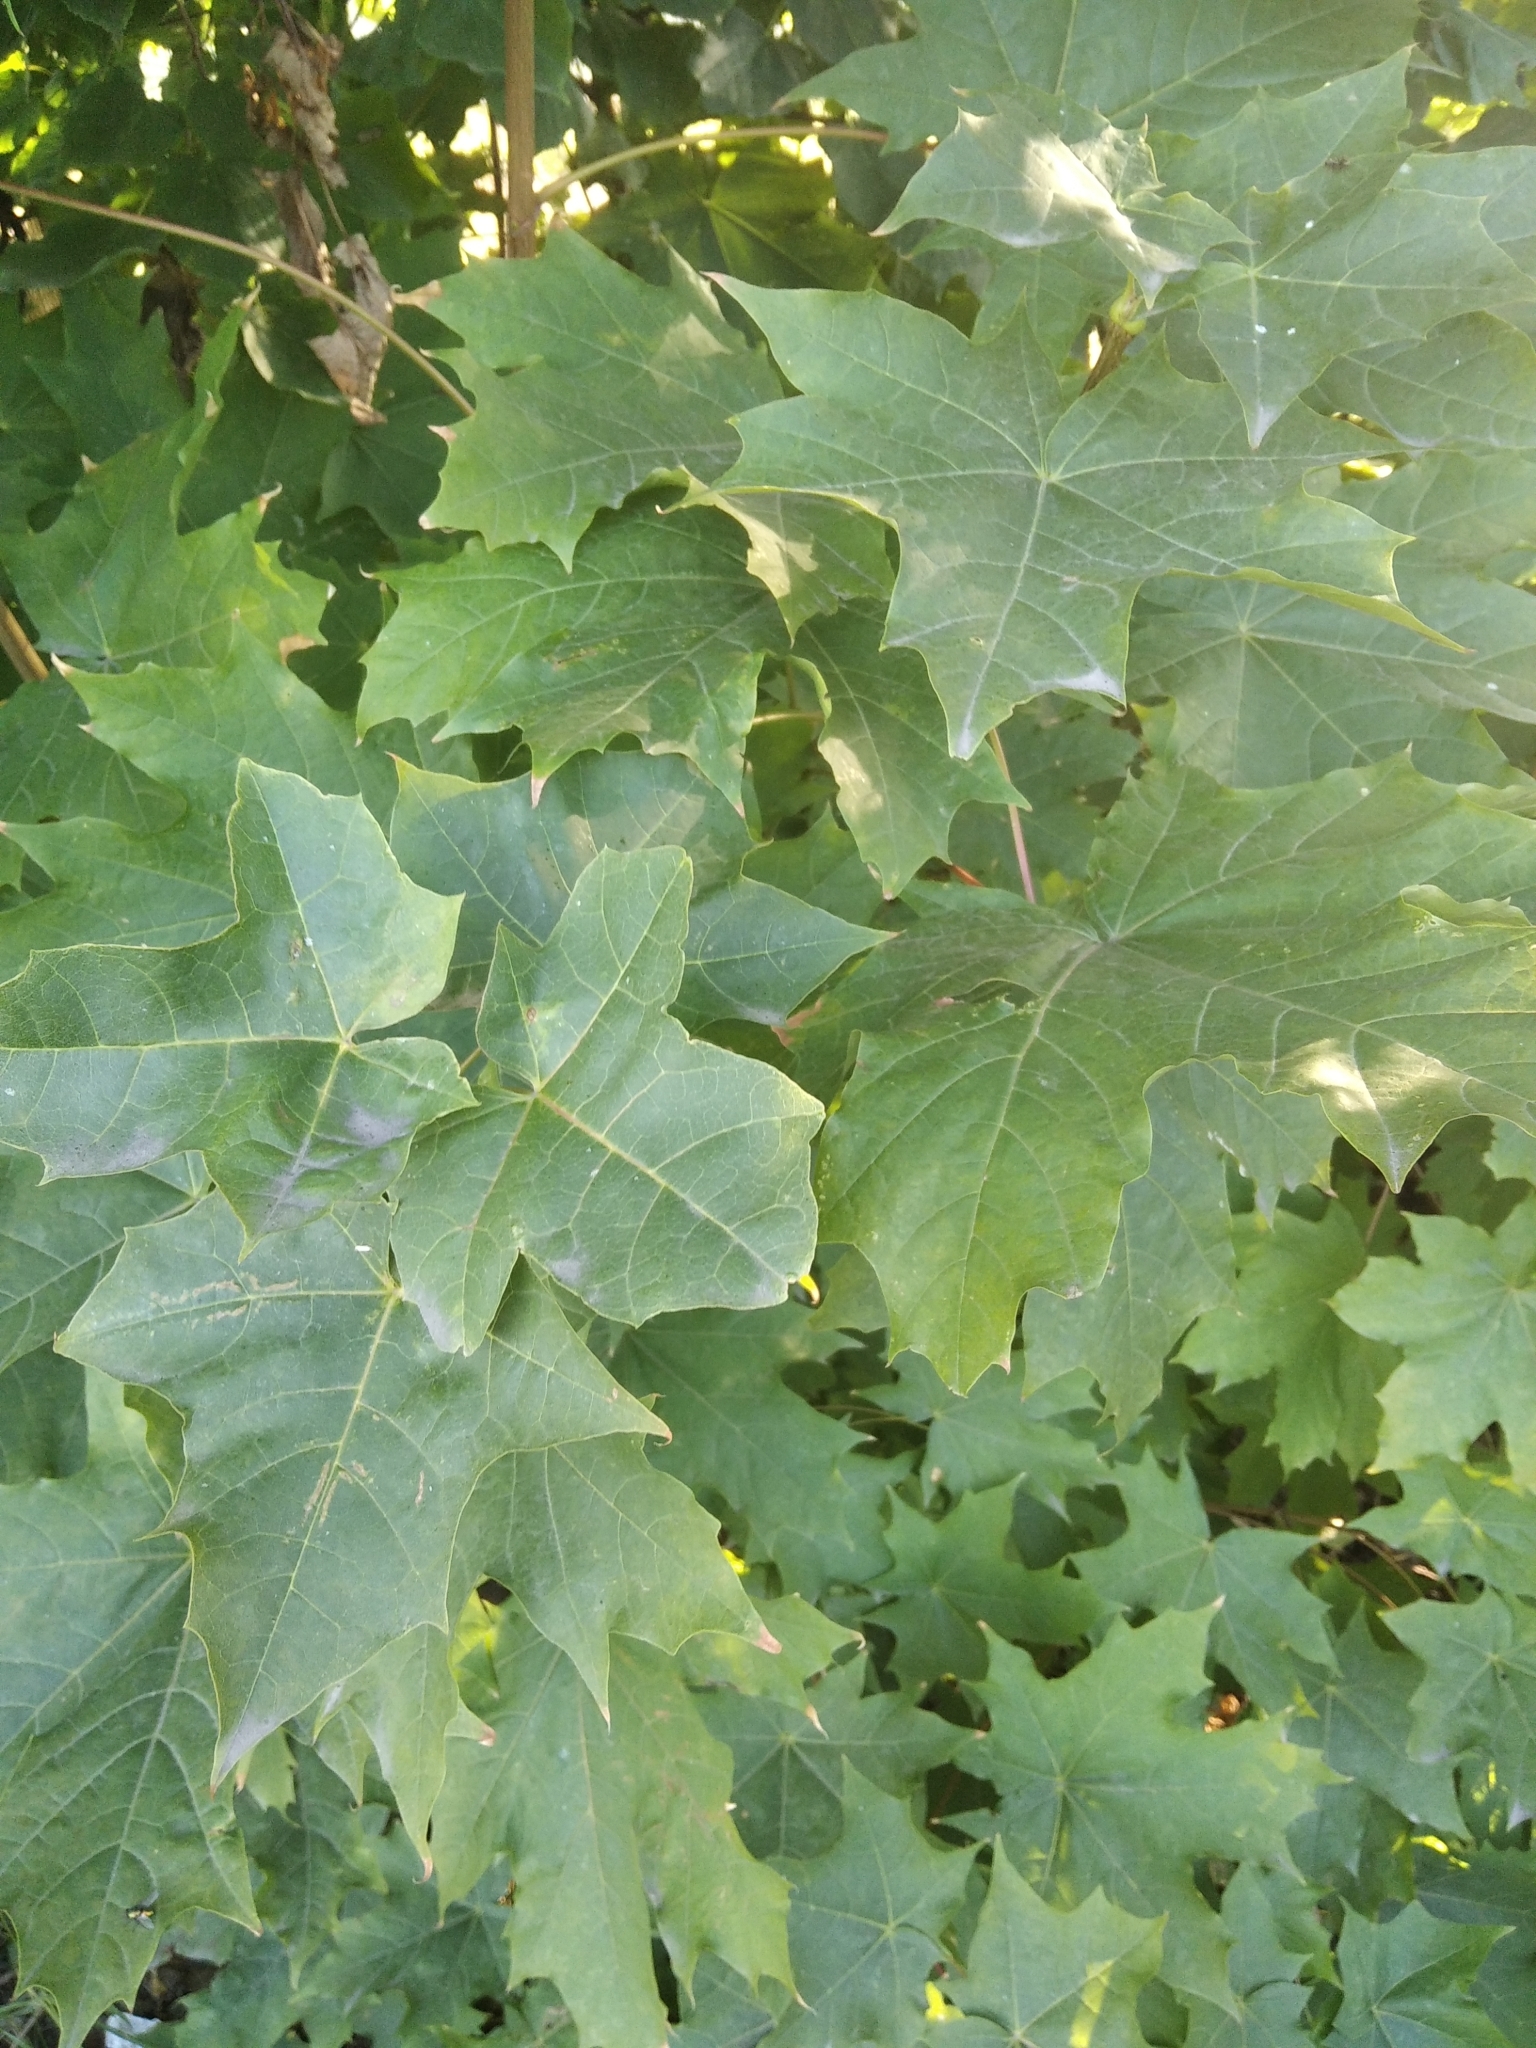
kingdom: Plantae
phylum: Tracheophyta
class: Magnoliopsida
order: Sapindales
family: Sapindaceae
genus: Acer
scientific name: Acer platanoides
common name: Norway maple
